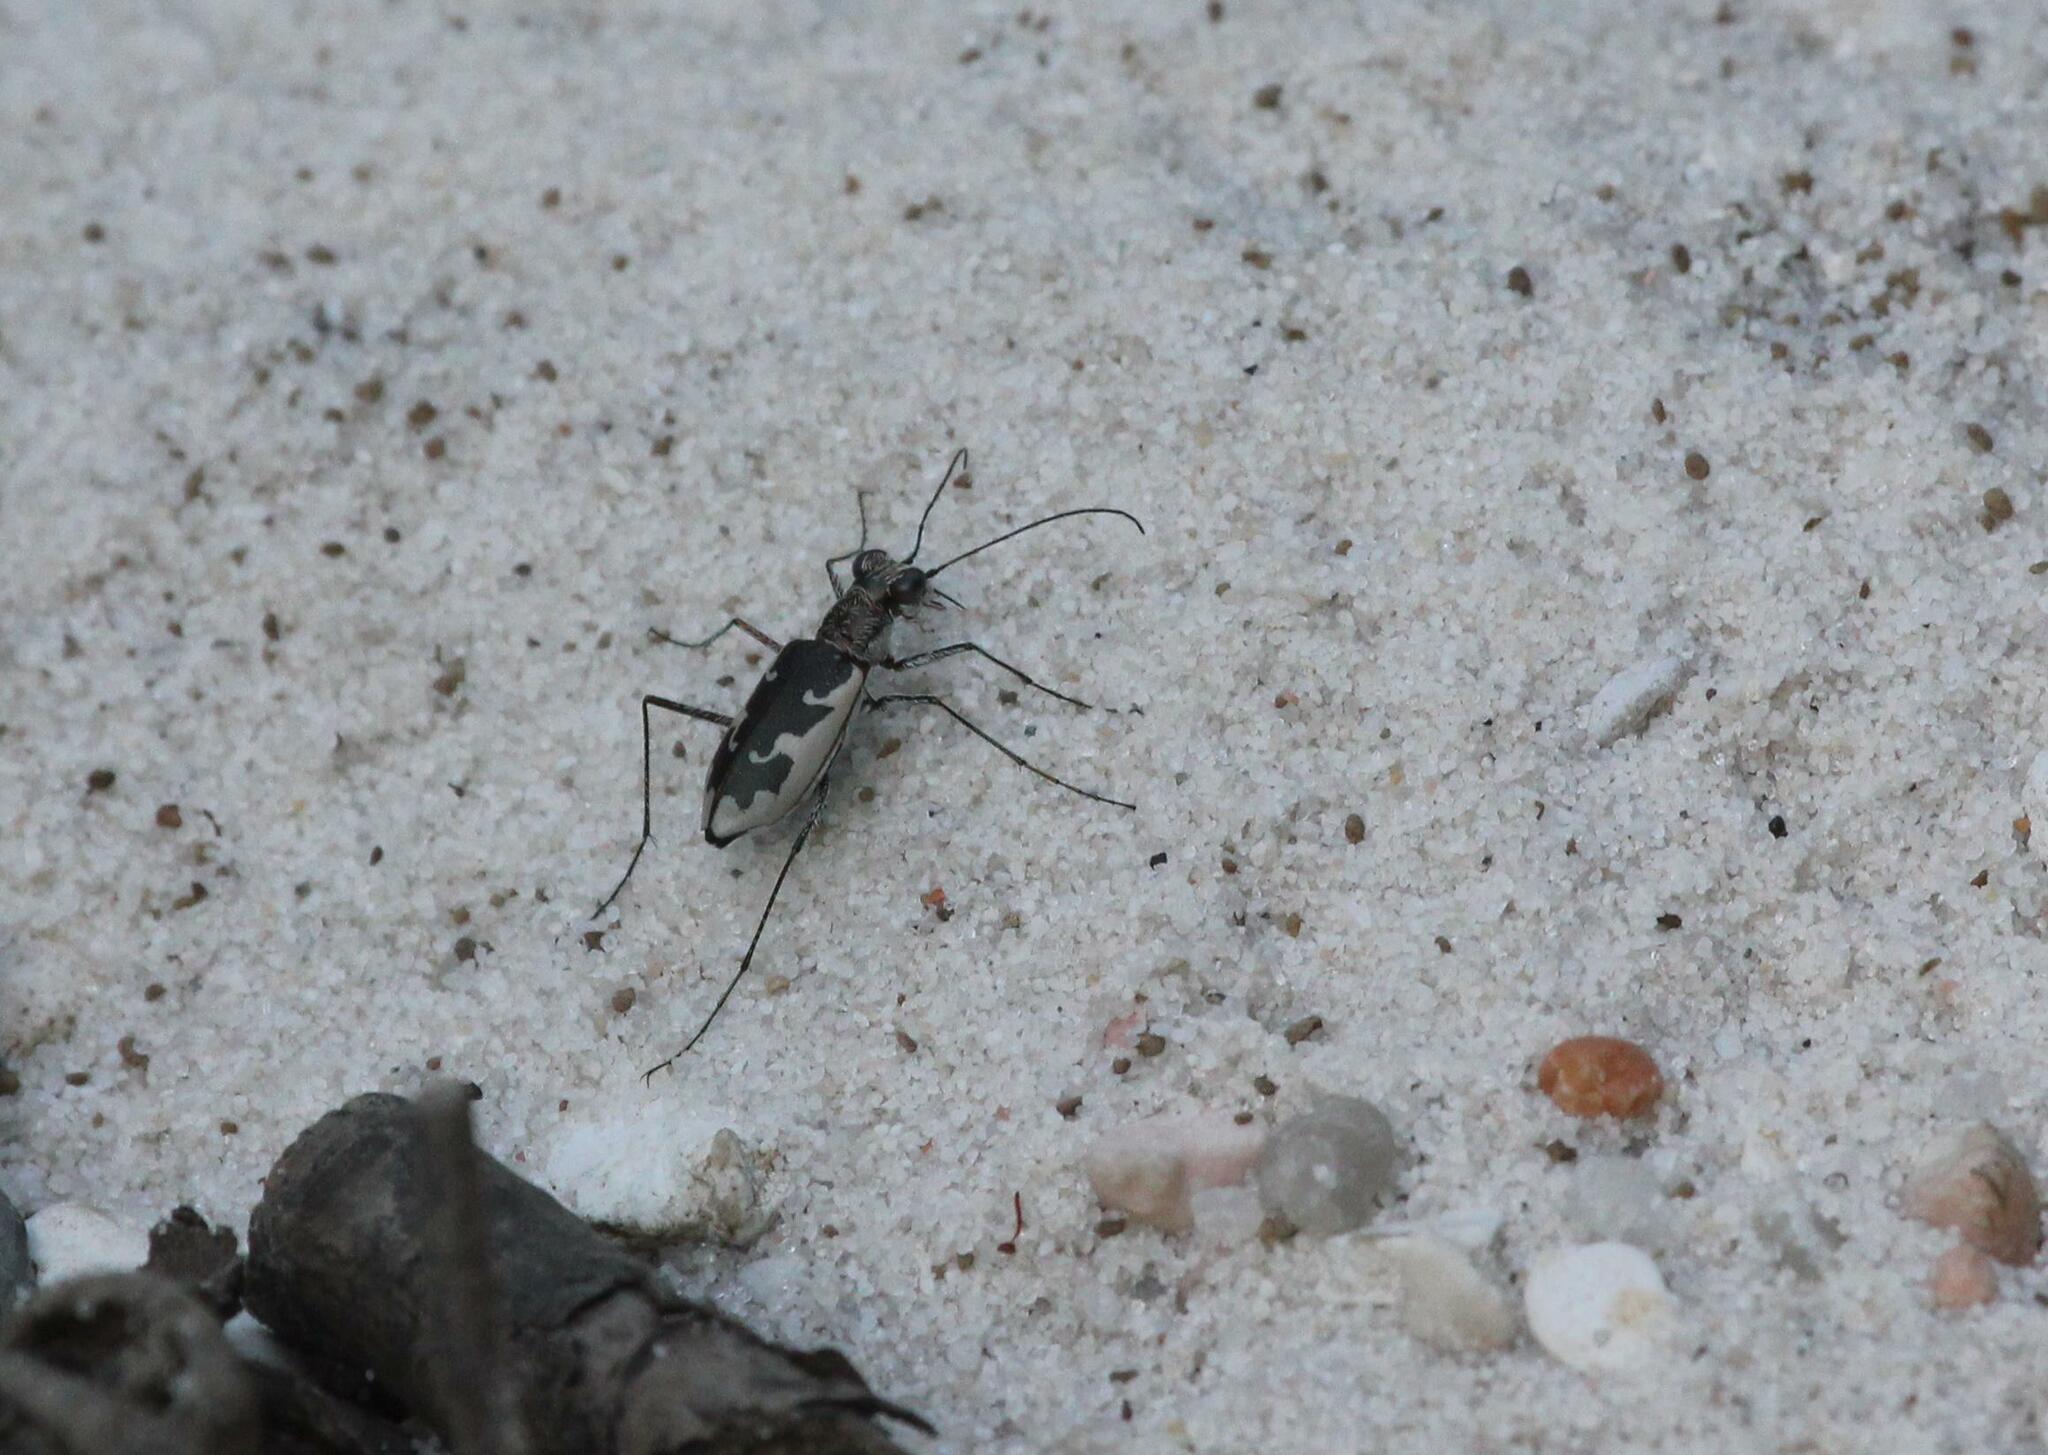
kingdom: Animalia
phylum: Arthropoda
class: Insecta
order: Coleoptera
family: Carabidae
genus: Ellipsoptera
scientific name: Ellipsoptera wapleri
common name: White-sand tiger beetle
